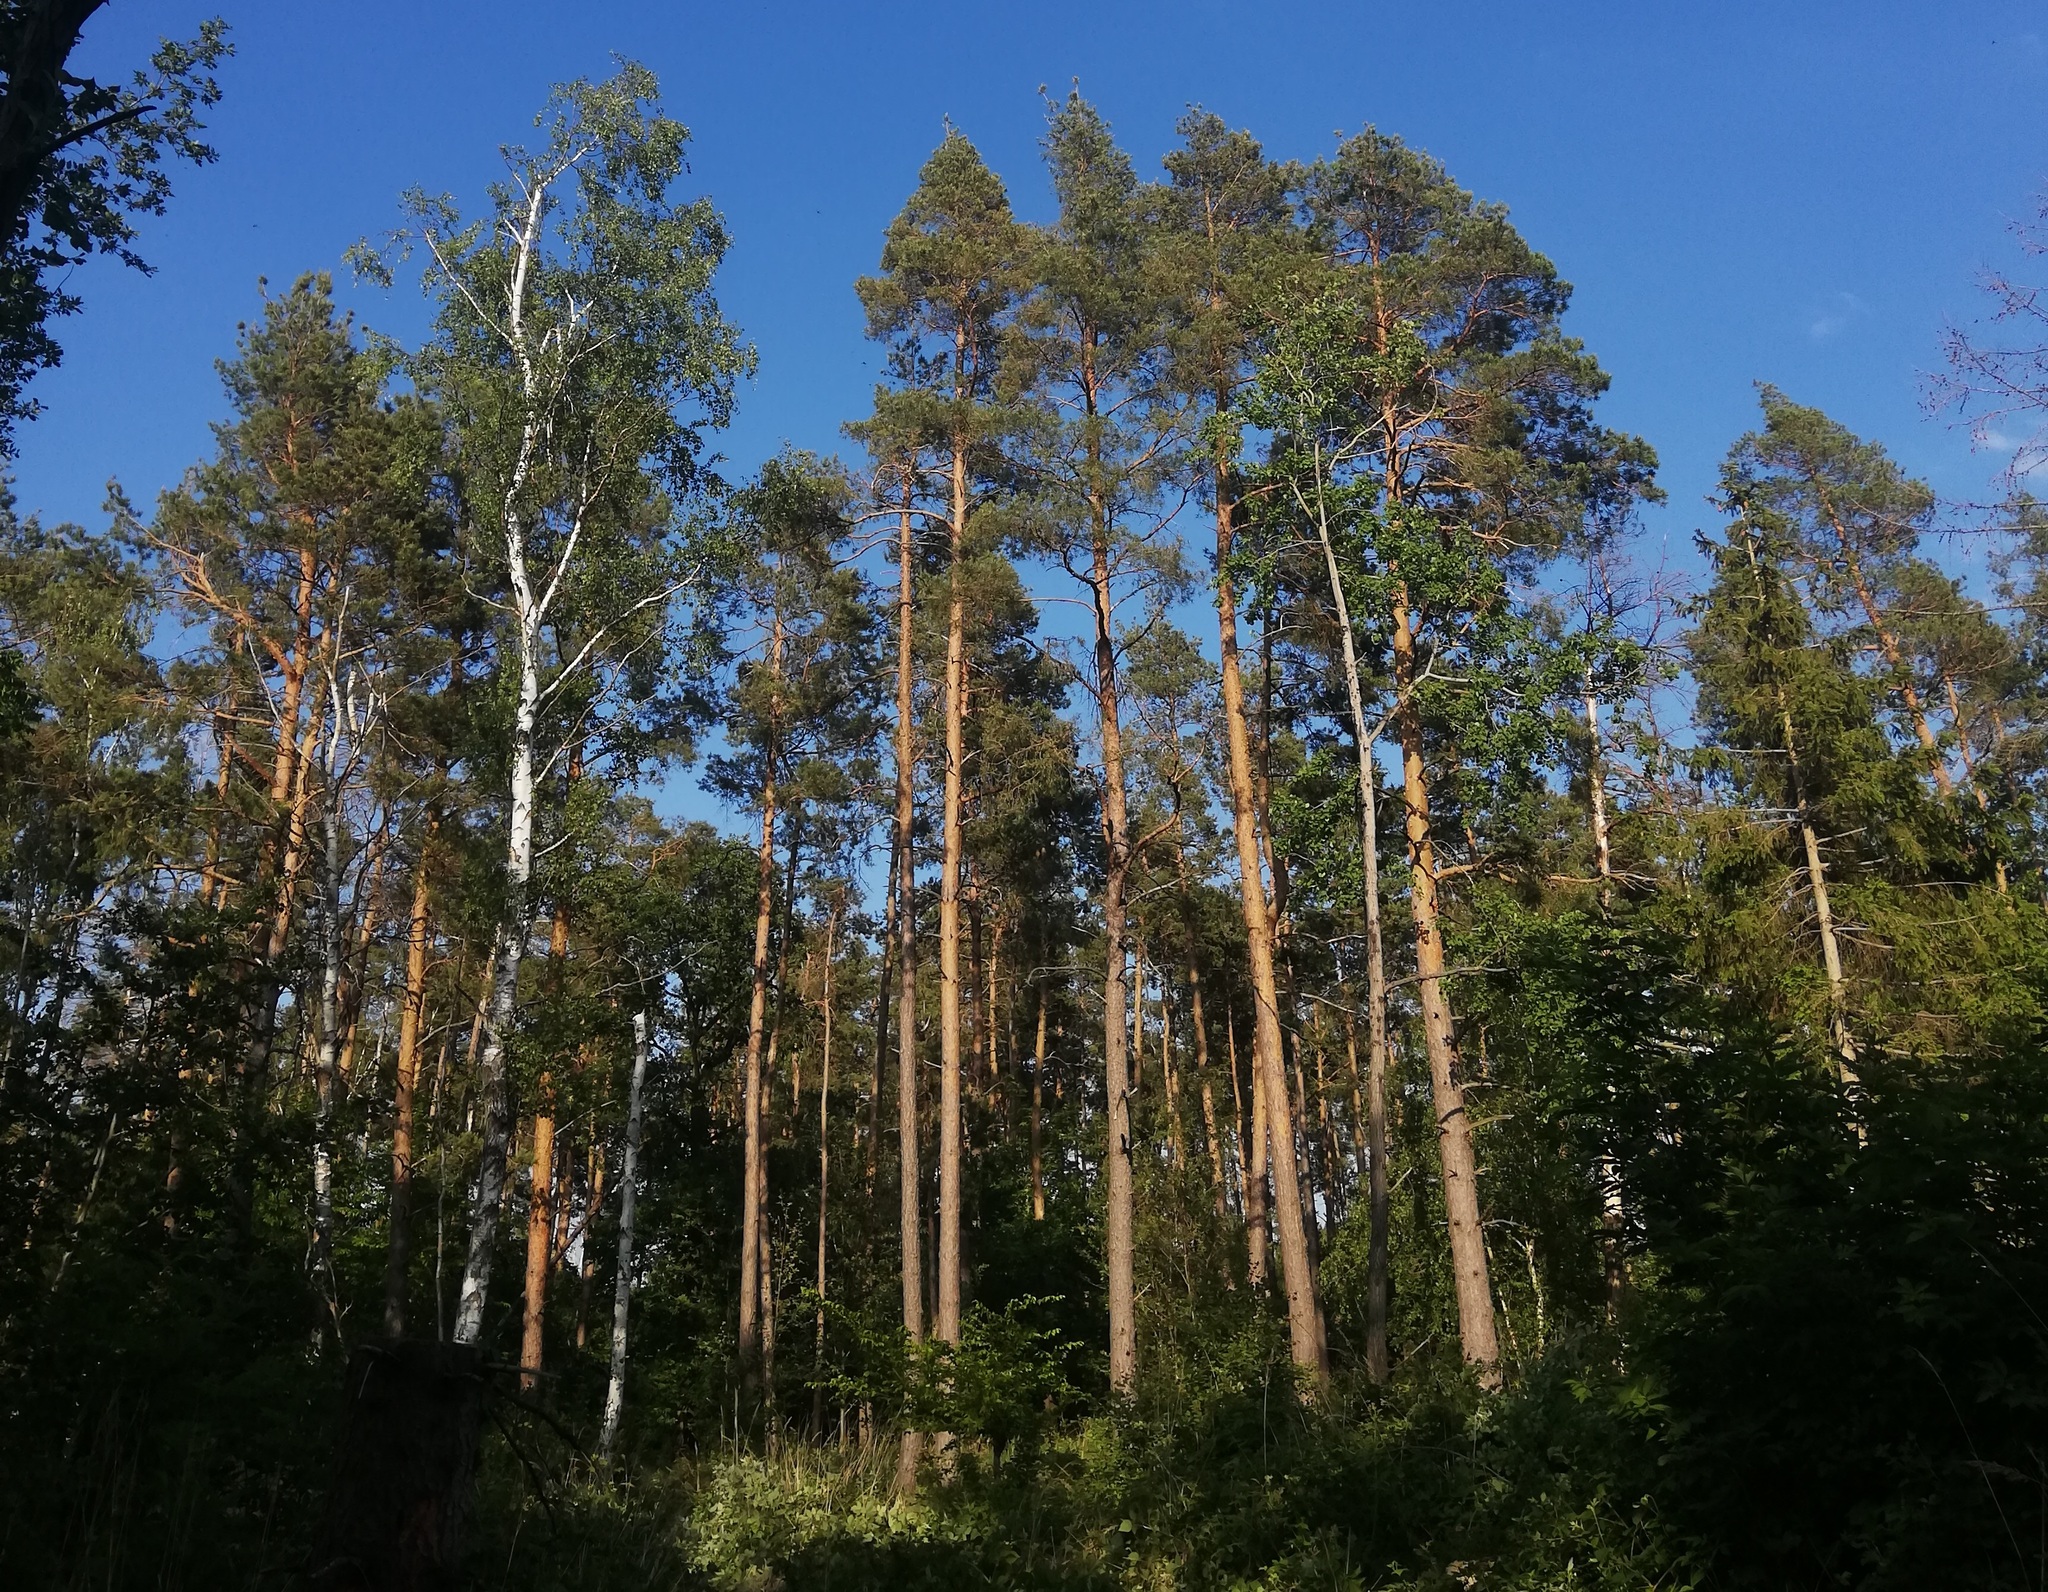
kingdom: Plantae
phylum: Tracheophyta
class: Pinopsida
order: Pinales
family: Pinaceae
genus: Pinus
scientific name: Pinus sylvestris
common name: Scots pine
